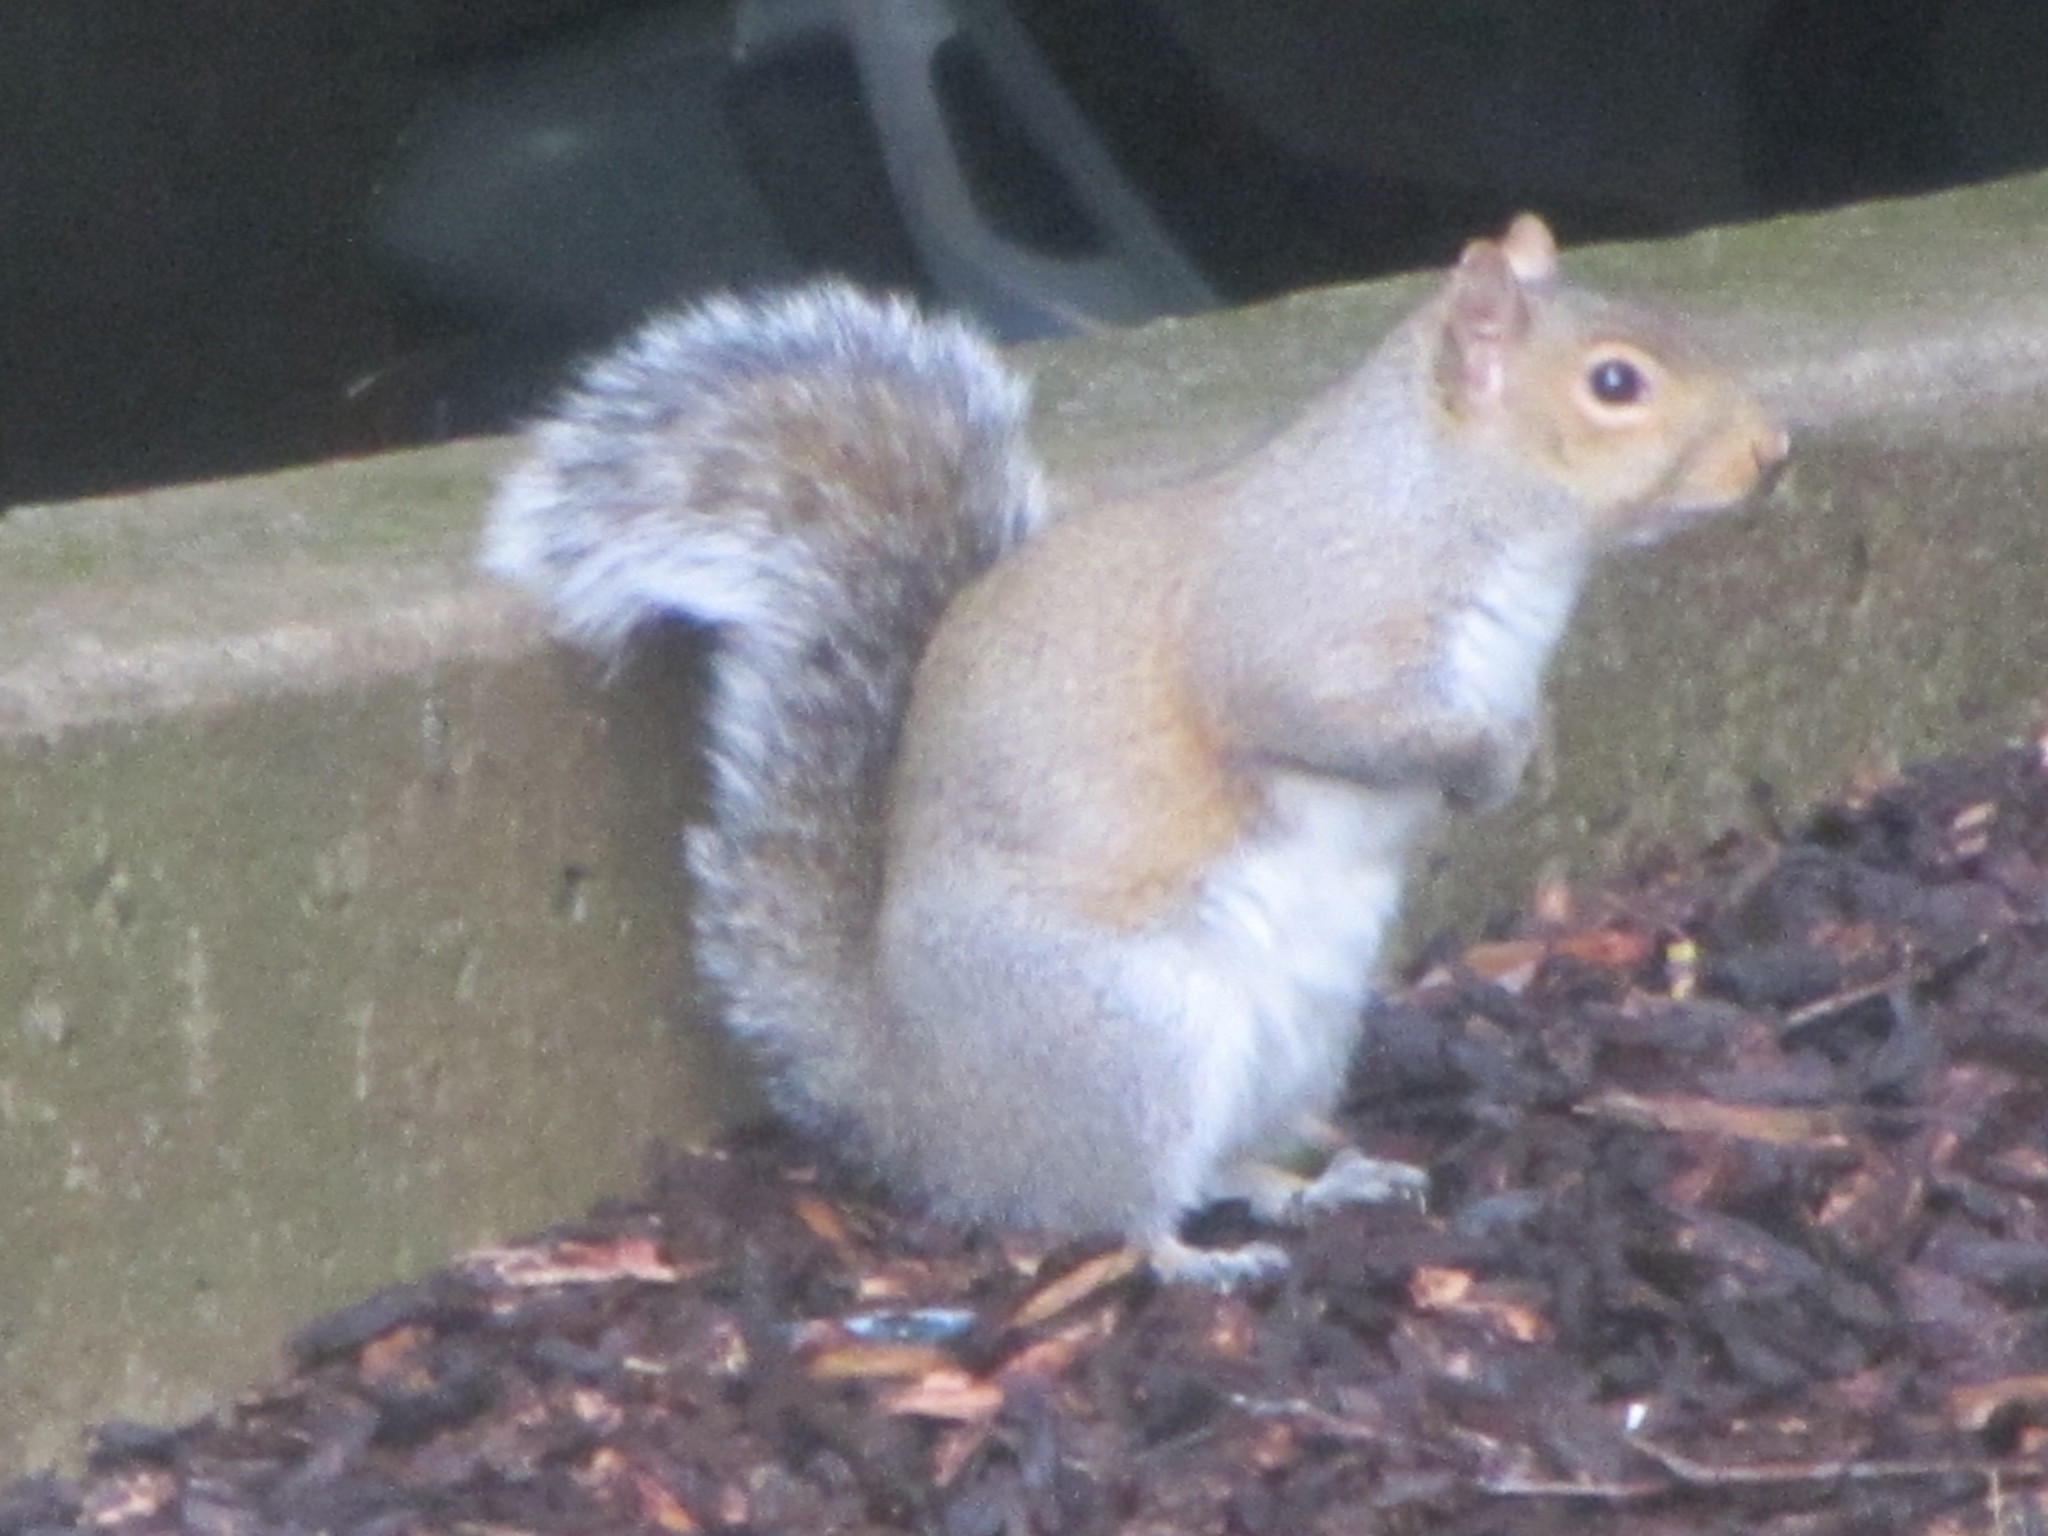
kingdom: Animalia
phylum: Chordata
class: Mammalia
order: Rodentia
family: Sciuridae
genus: Sciurus
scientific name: Sciurus carolinensis
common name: Eastern gray squirrel
